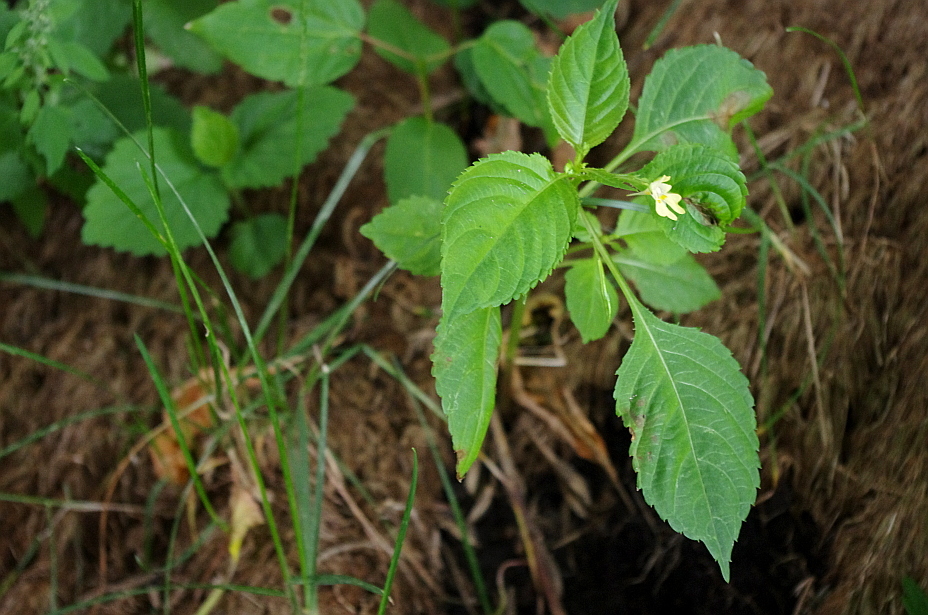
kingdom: Plantae
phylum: Tracheophyta
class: Magnoliopsida
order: Ericales
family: Balsaminaceae
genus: Impatiens
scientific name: Impatiens parviflora
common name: Small balsam
